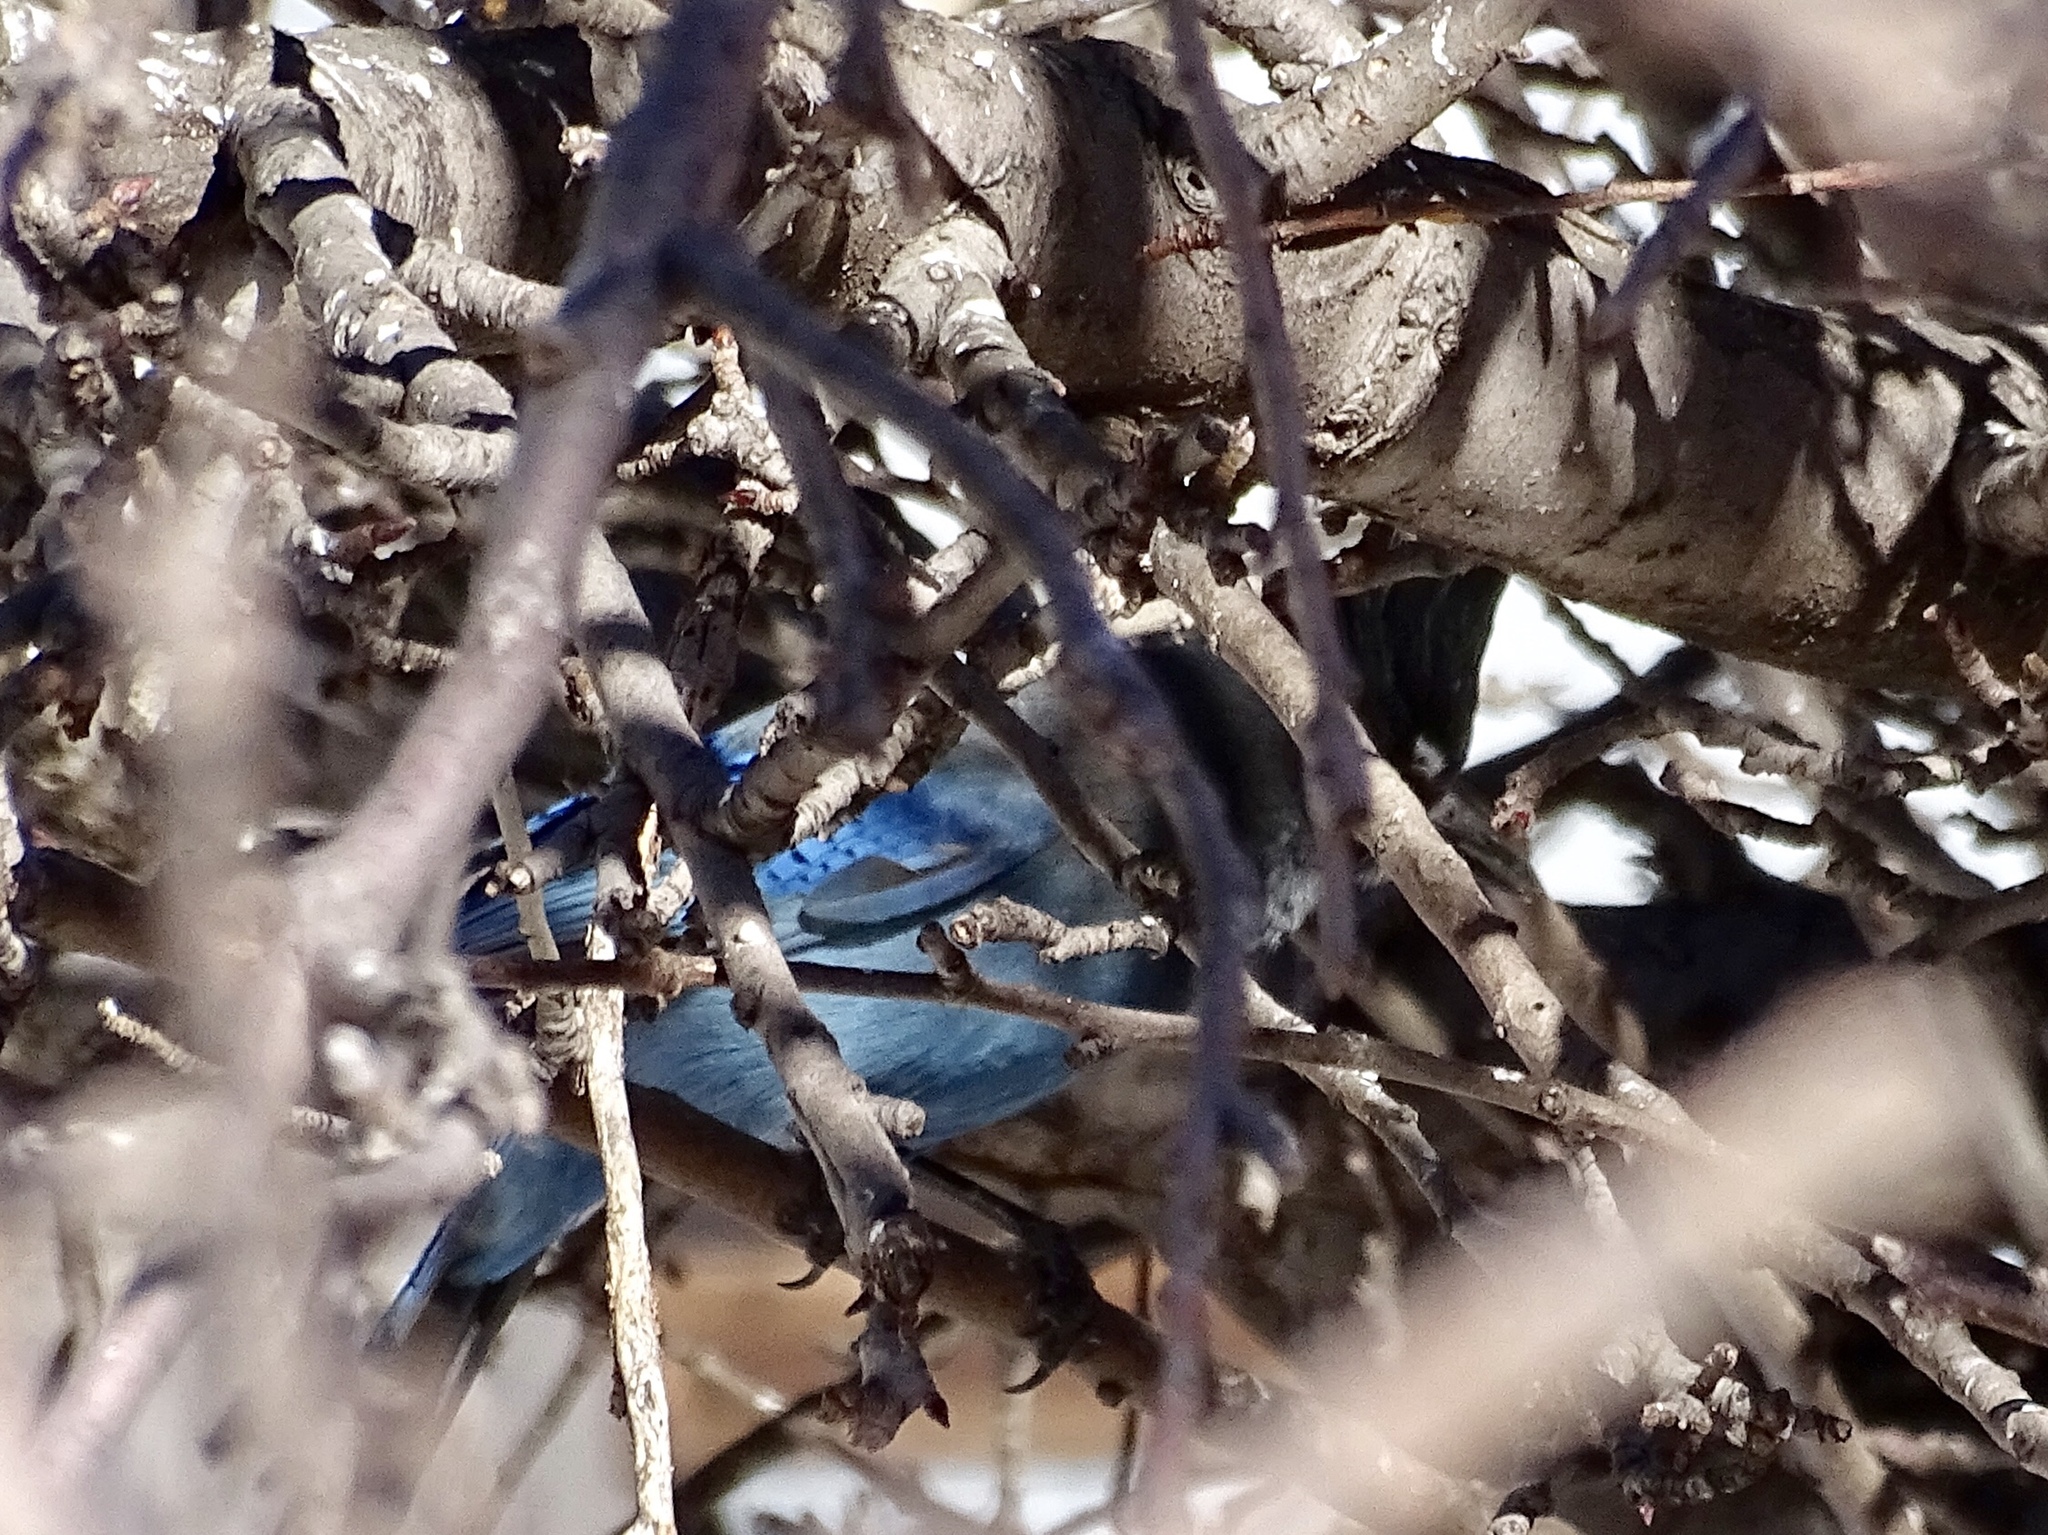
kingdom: Animalia
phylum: Chordata
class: Aves
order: Passeriformes
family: Corvidae
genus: Cyanocitta
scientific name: Cyanocitta stelleri
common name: Steller's jay
